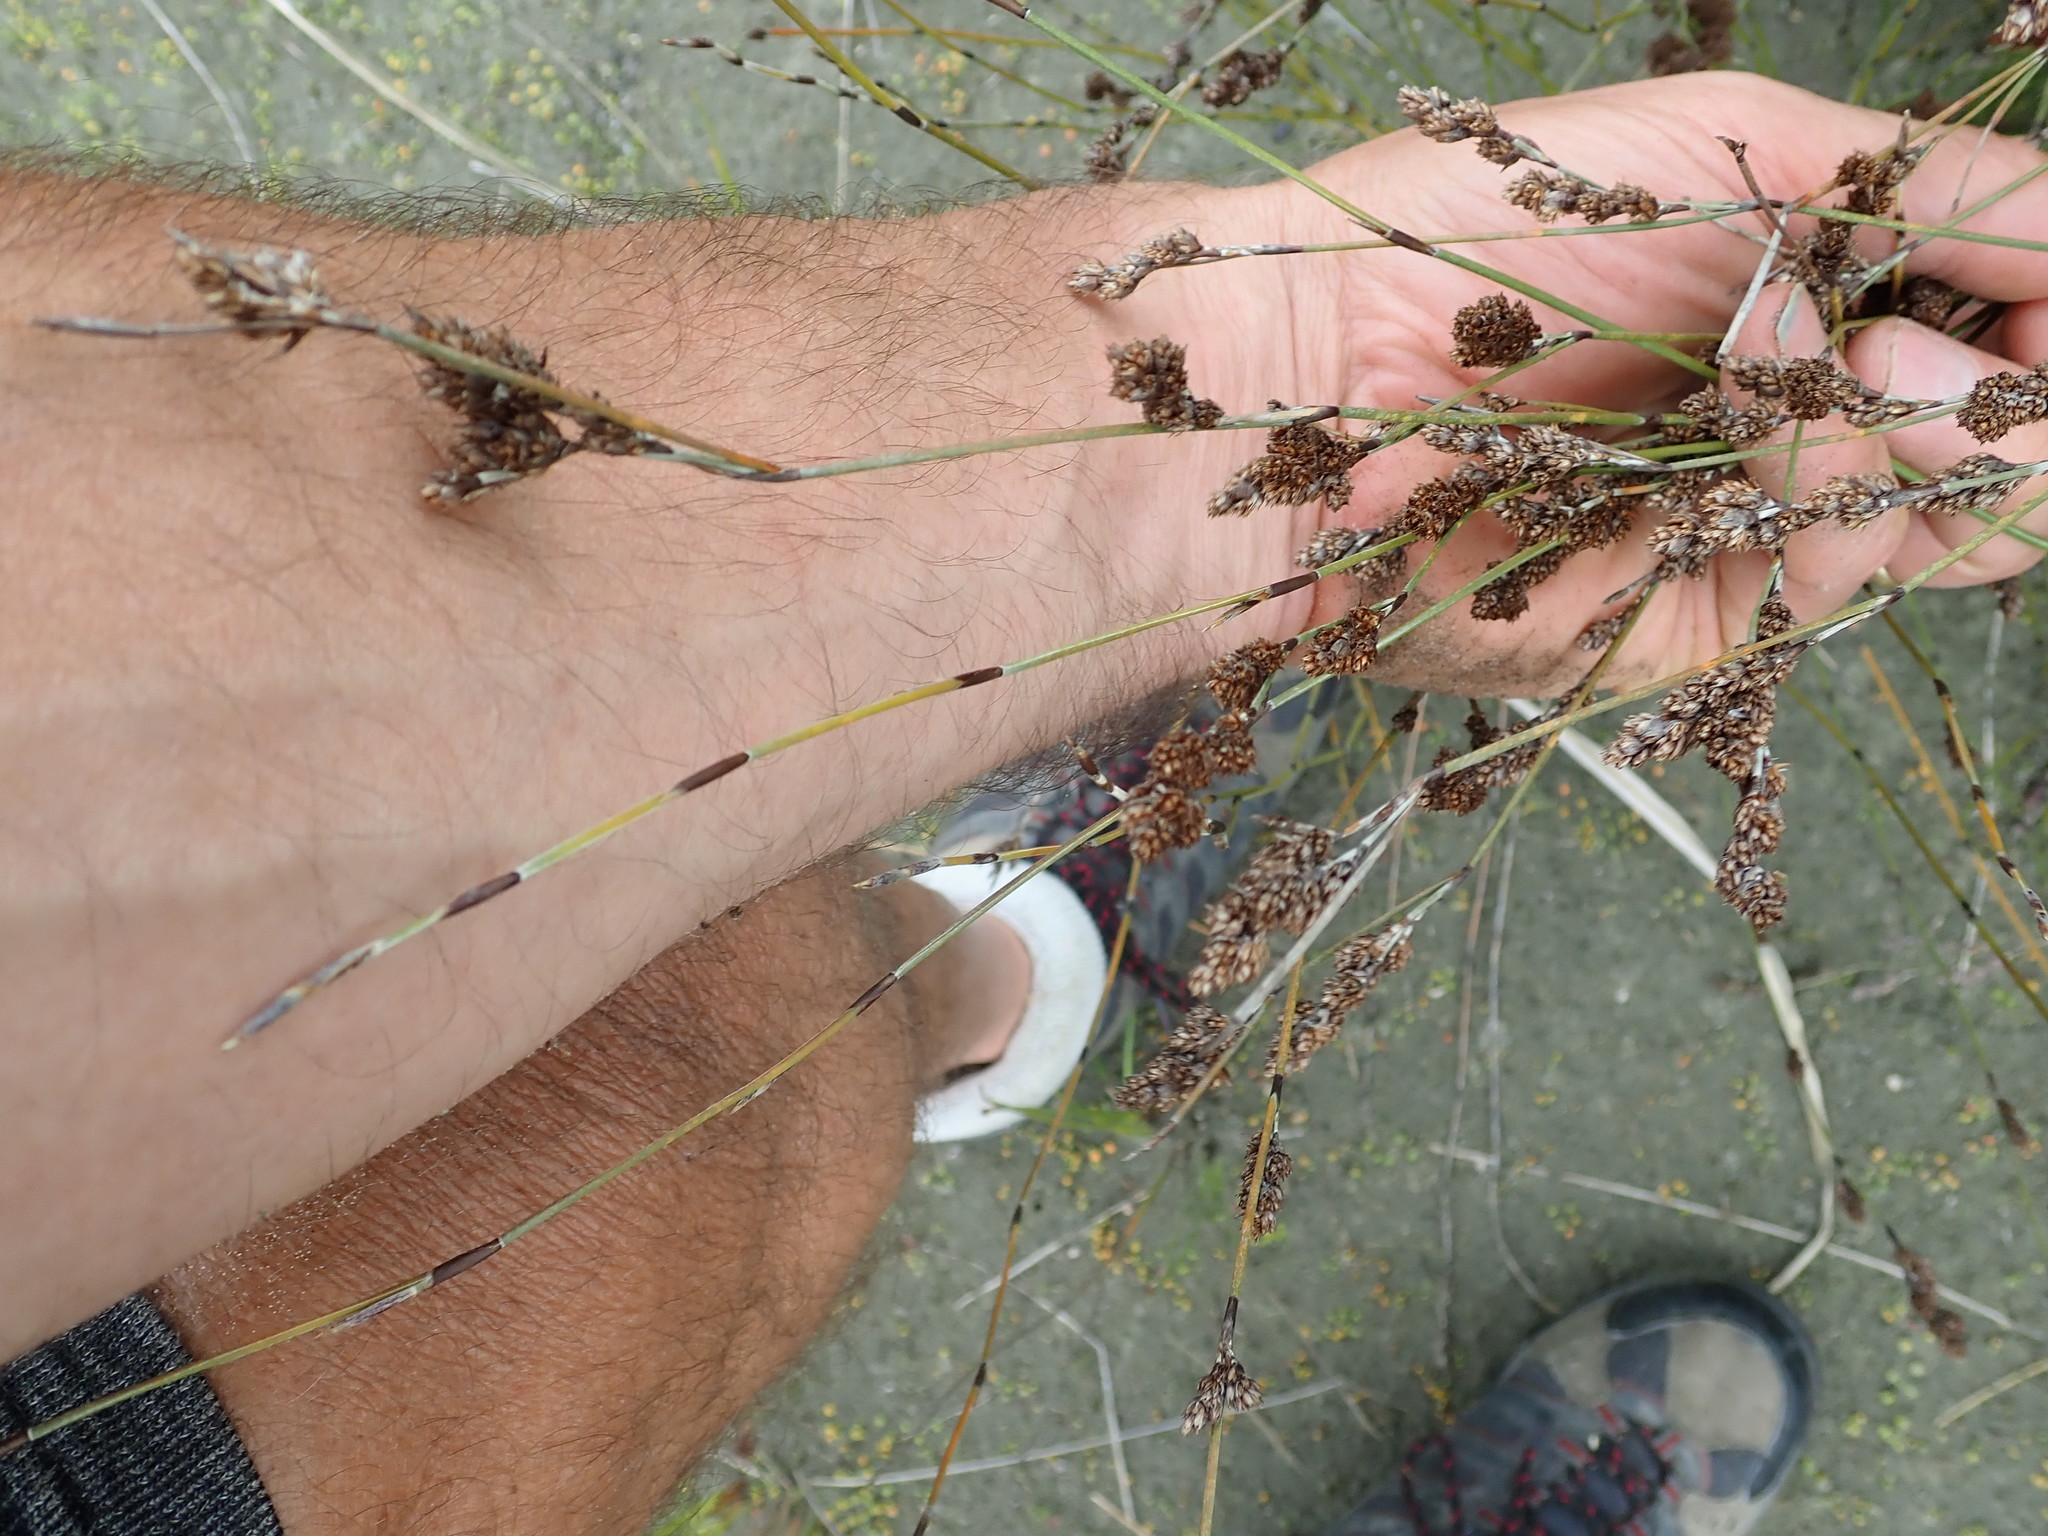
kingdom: Plantae
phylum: Tracheophyta
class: Liliopsida
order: Poales
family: Restionaceae
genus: Apodasmia
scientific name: Apodasmia similis
